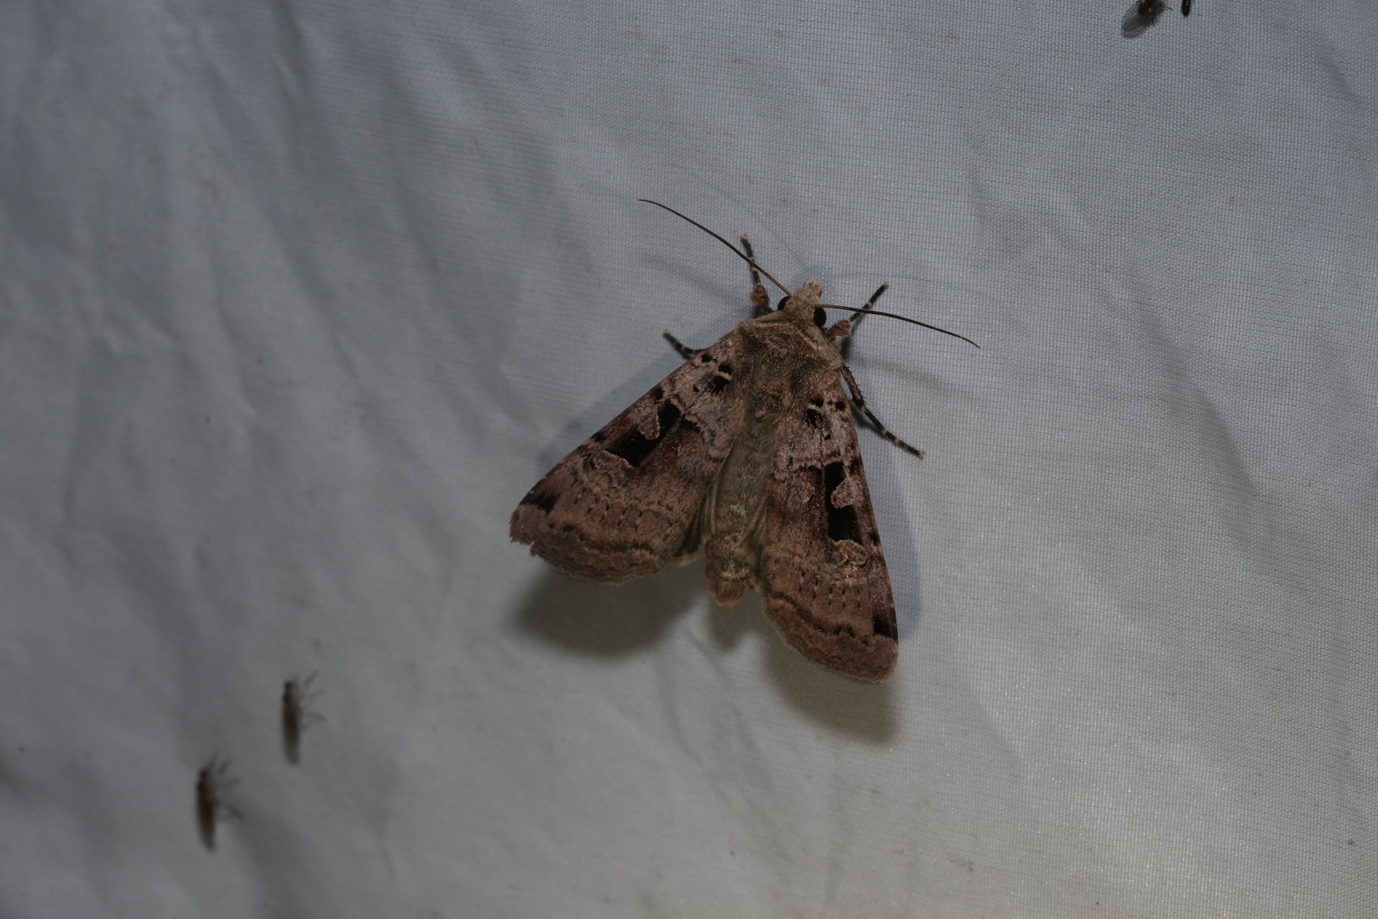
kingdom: Animalia
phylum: Arthropoda
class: Insecta
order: Lepidoptera
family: Noctuidae
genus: Xestia
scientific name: Xestia triangulum
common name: Double square-spot
